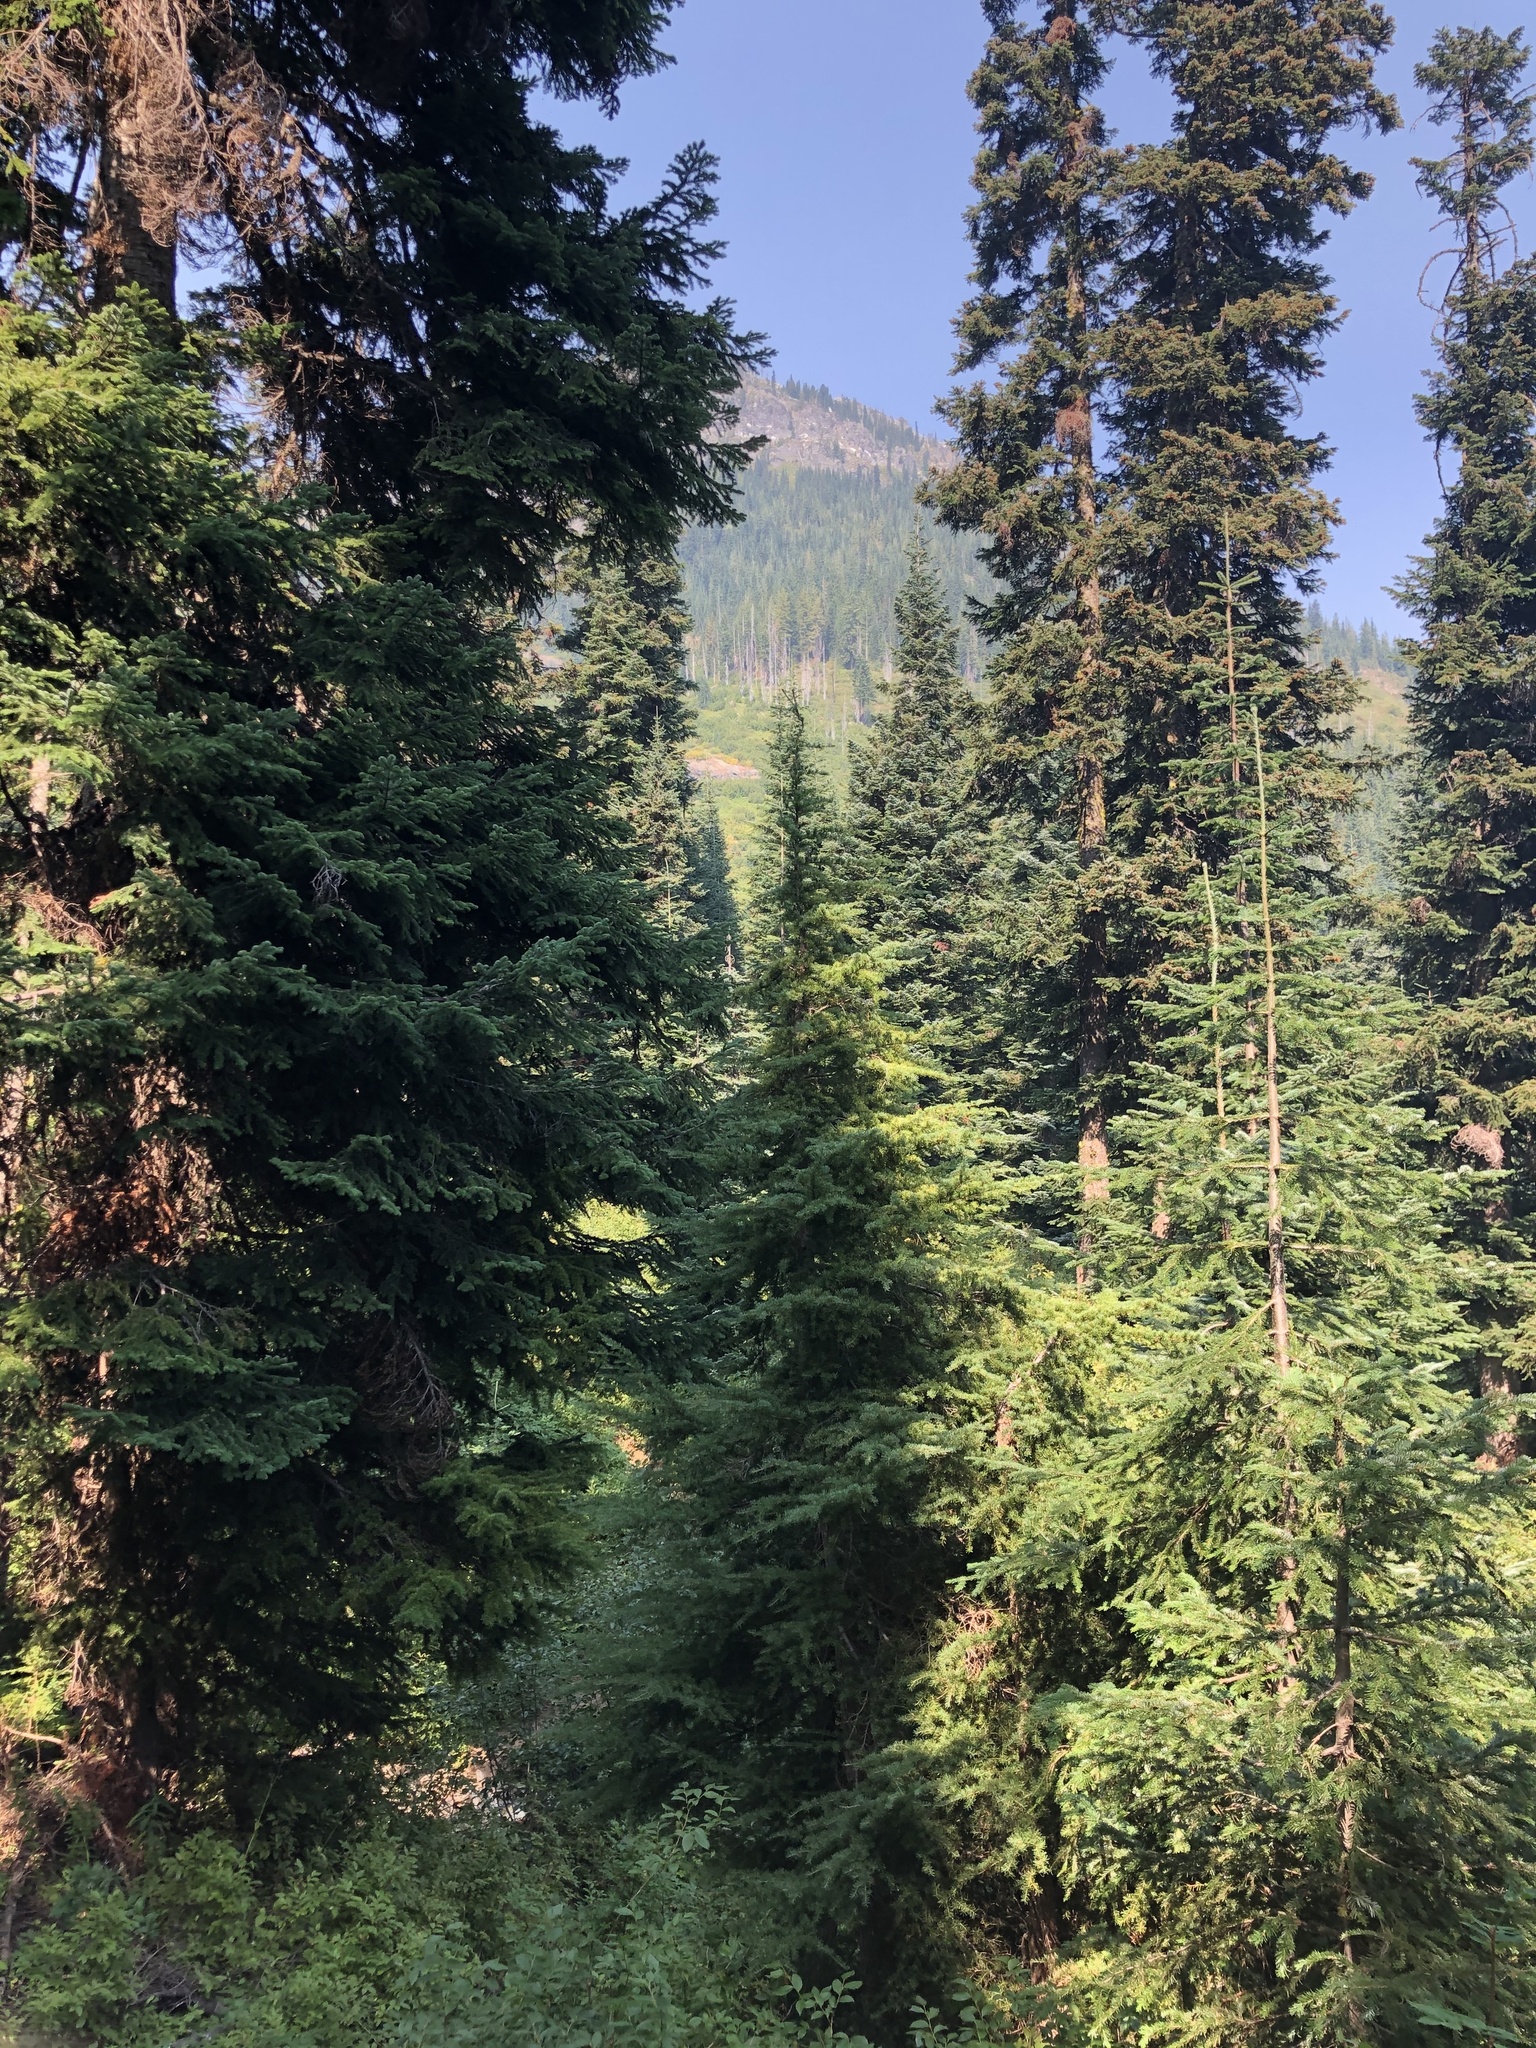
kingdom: Plantae
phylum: Tracheophyta
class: Pinopsida
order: Pinales
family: Pinaceae
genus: Tsuga
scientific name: Tsuga mertensiana
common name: Mountain hemlock
